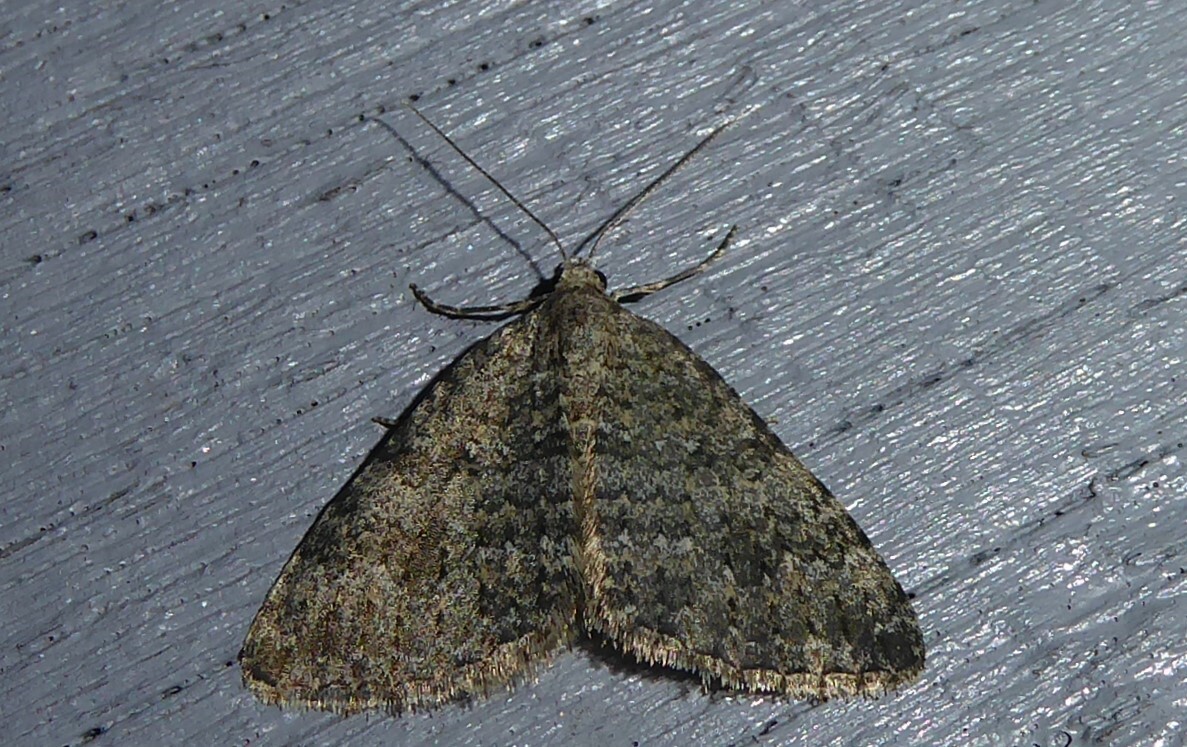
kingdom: Animalia
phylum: Arthropoda
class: Insecta
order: Lepidoptera
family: Geometridae
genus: Helastia
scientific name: Helastia corcularia
